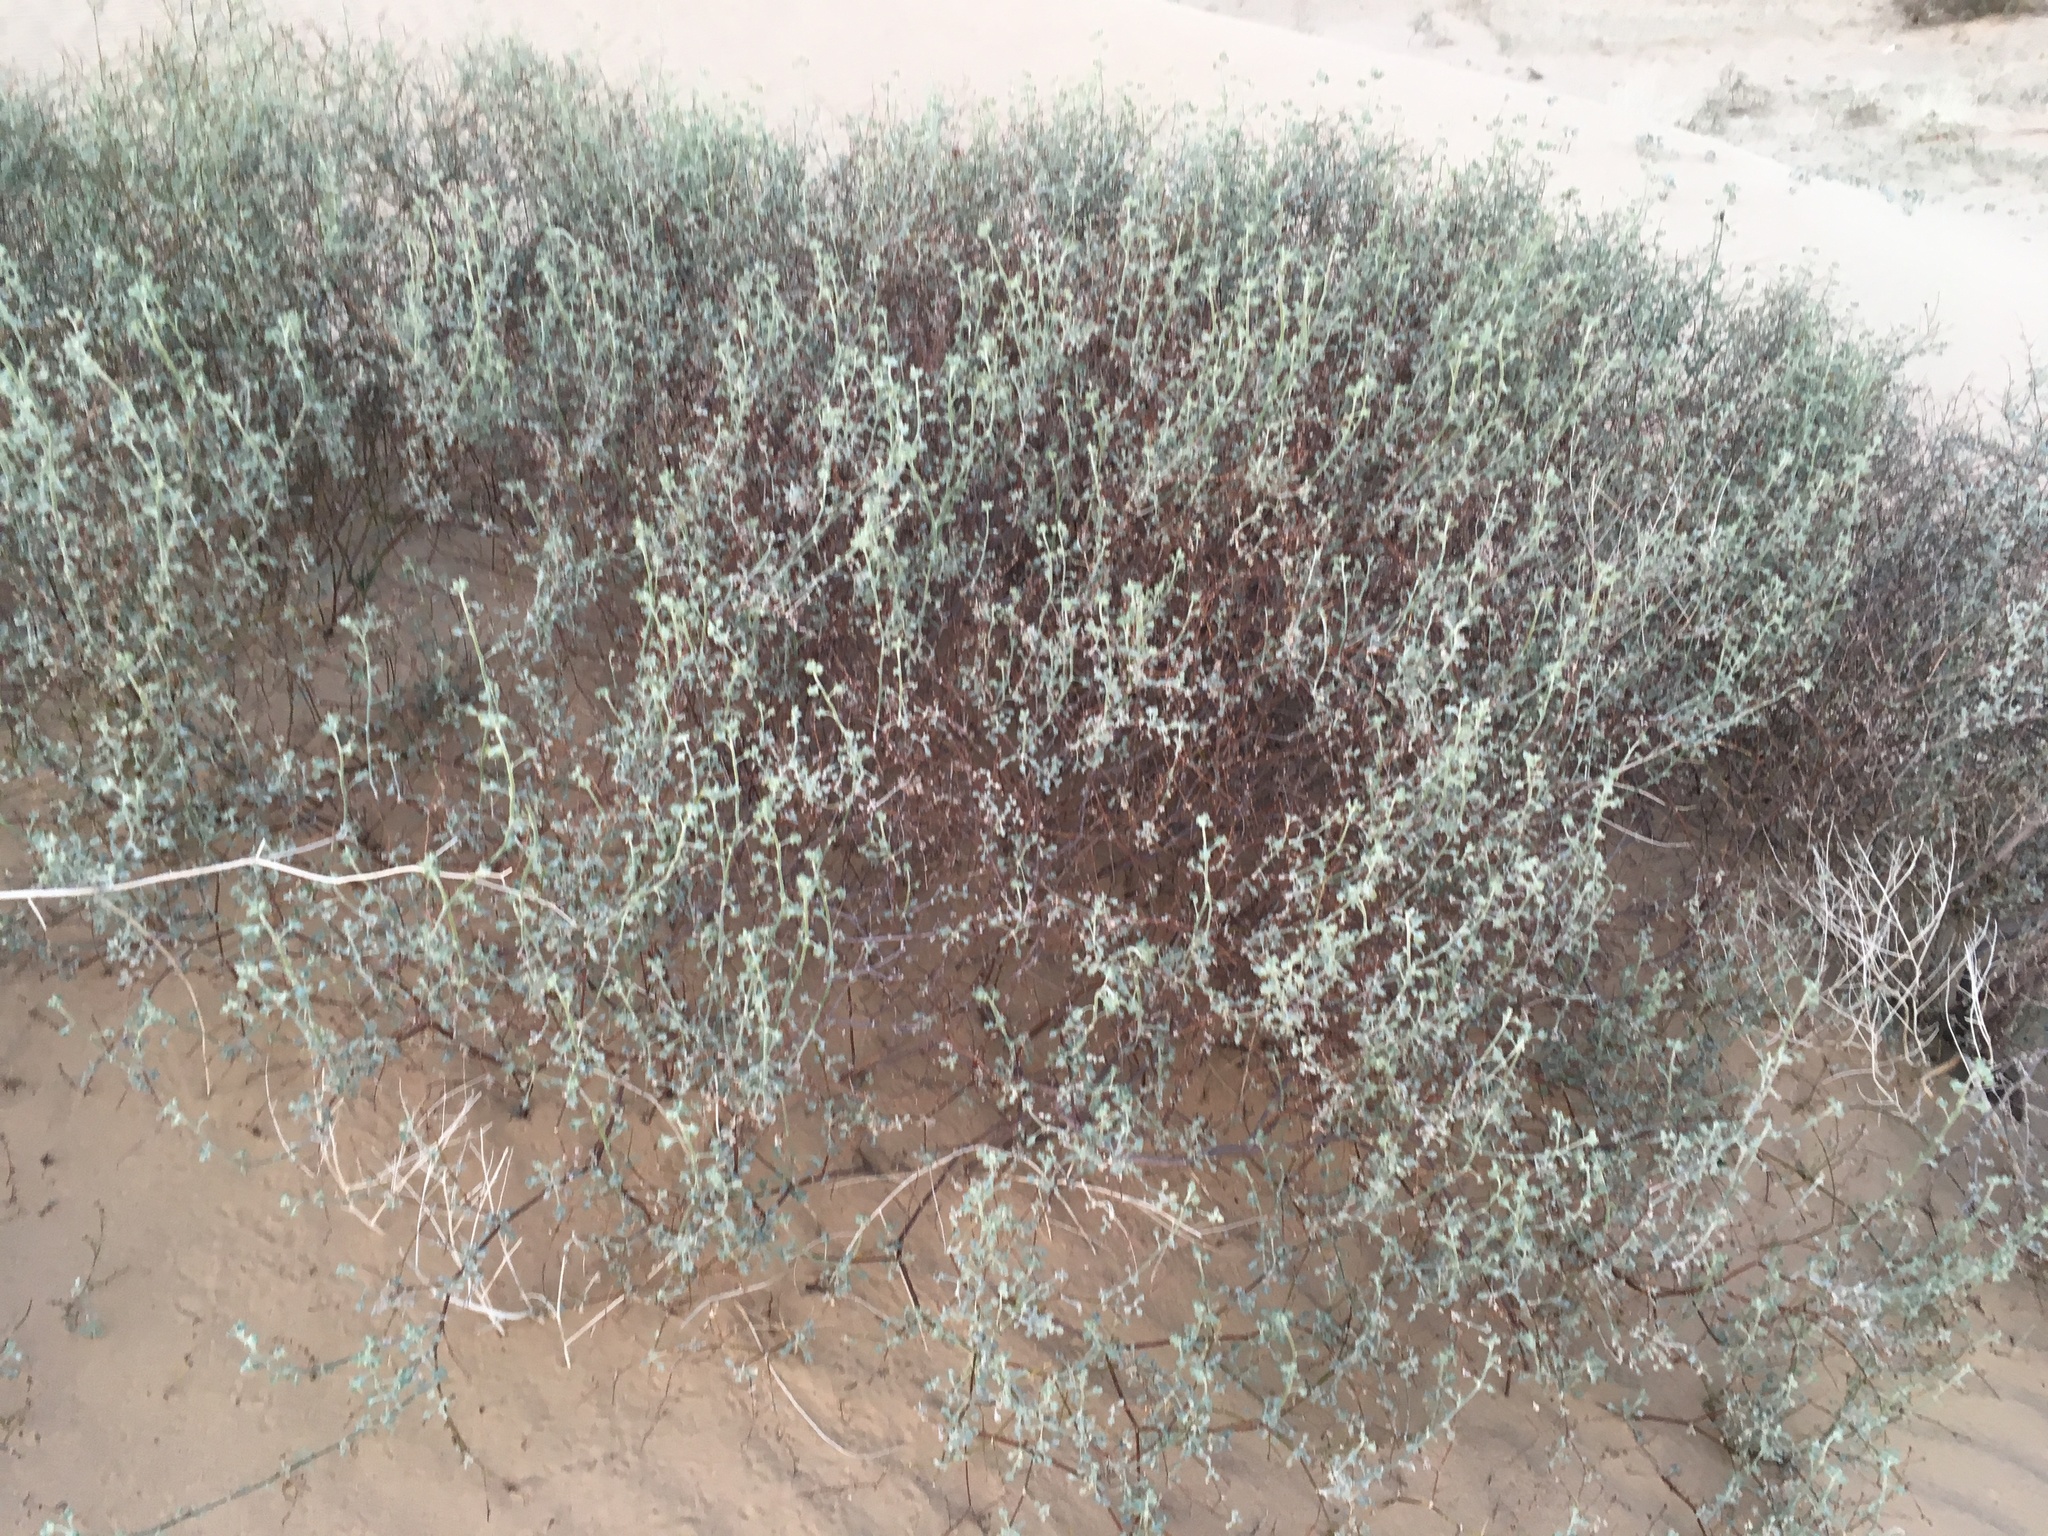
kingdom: Plantae
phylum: Tracheophyta
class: Magnoliopsida
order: Caryophyllales
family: Polygonaceae
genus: Eriogonum
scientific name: Eriogonum deserticola
